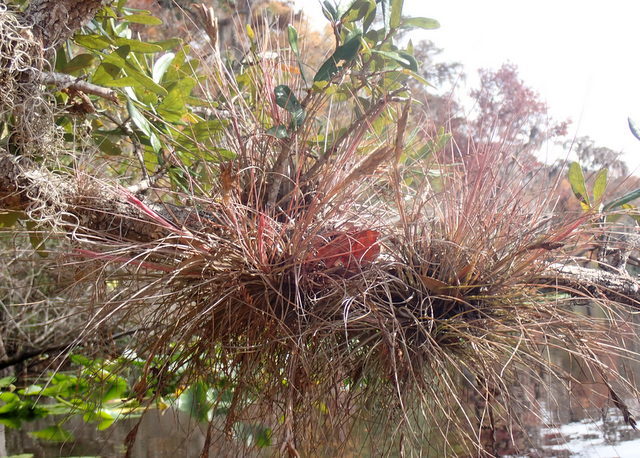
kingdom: Plantae
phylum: Tracheophyta
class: Liliopsida
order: Poales
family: Bromeliaceae
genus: Tillandsia
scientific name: Tillandsia bartramii
